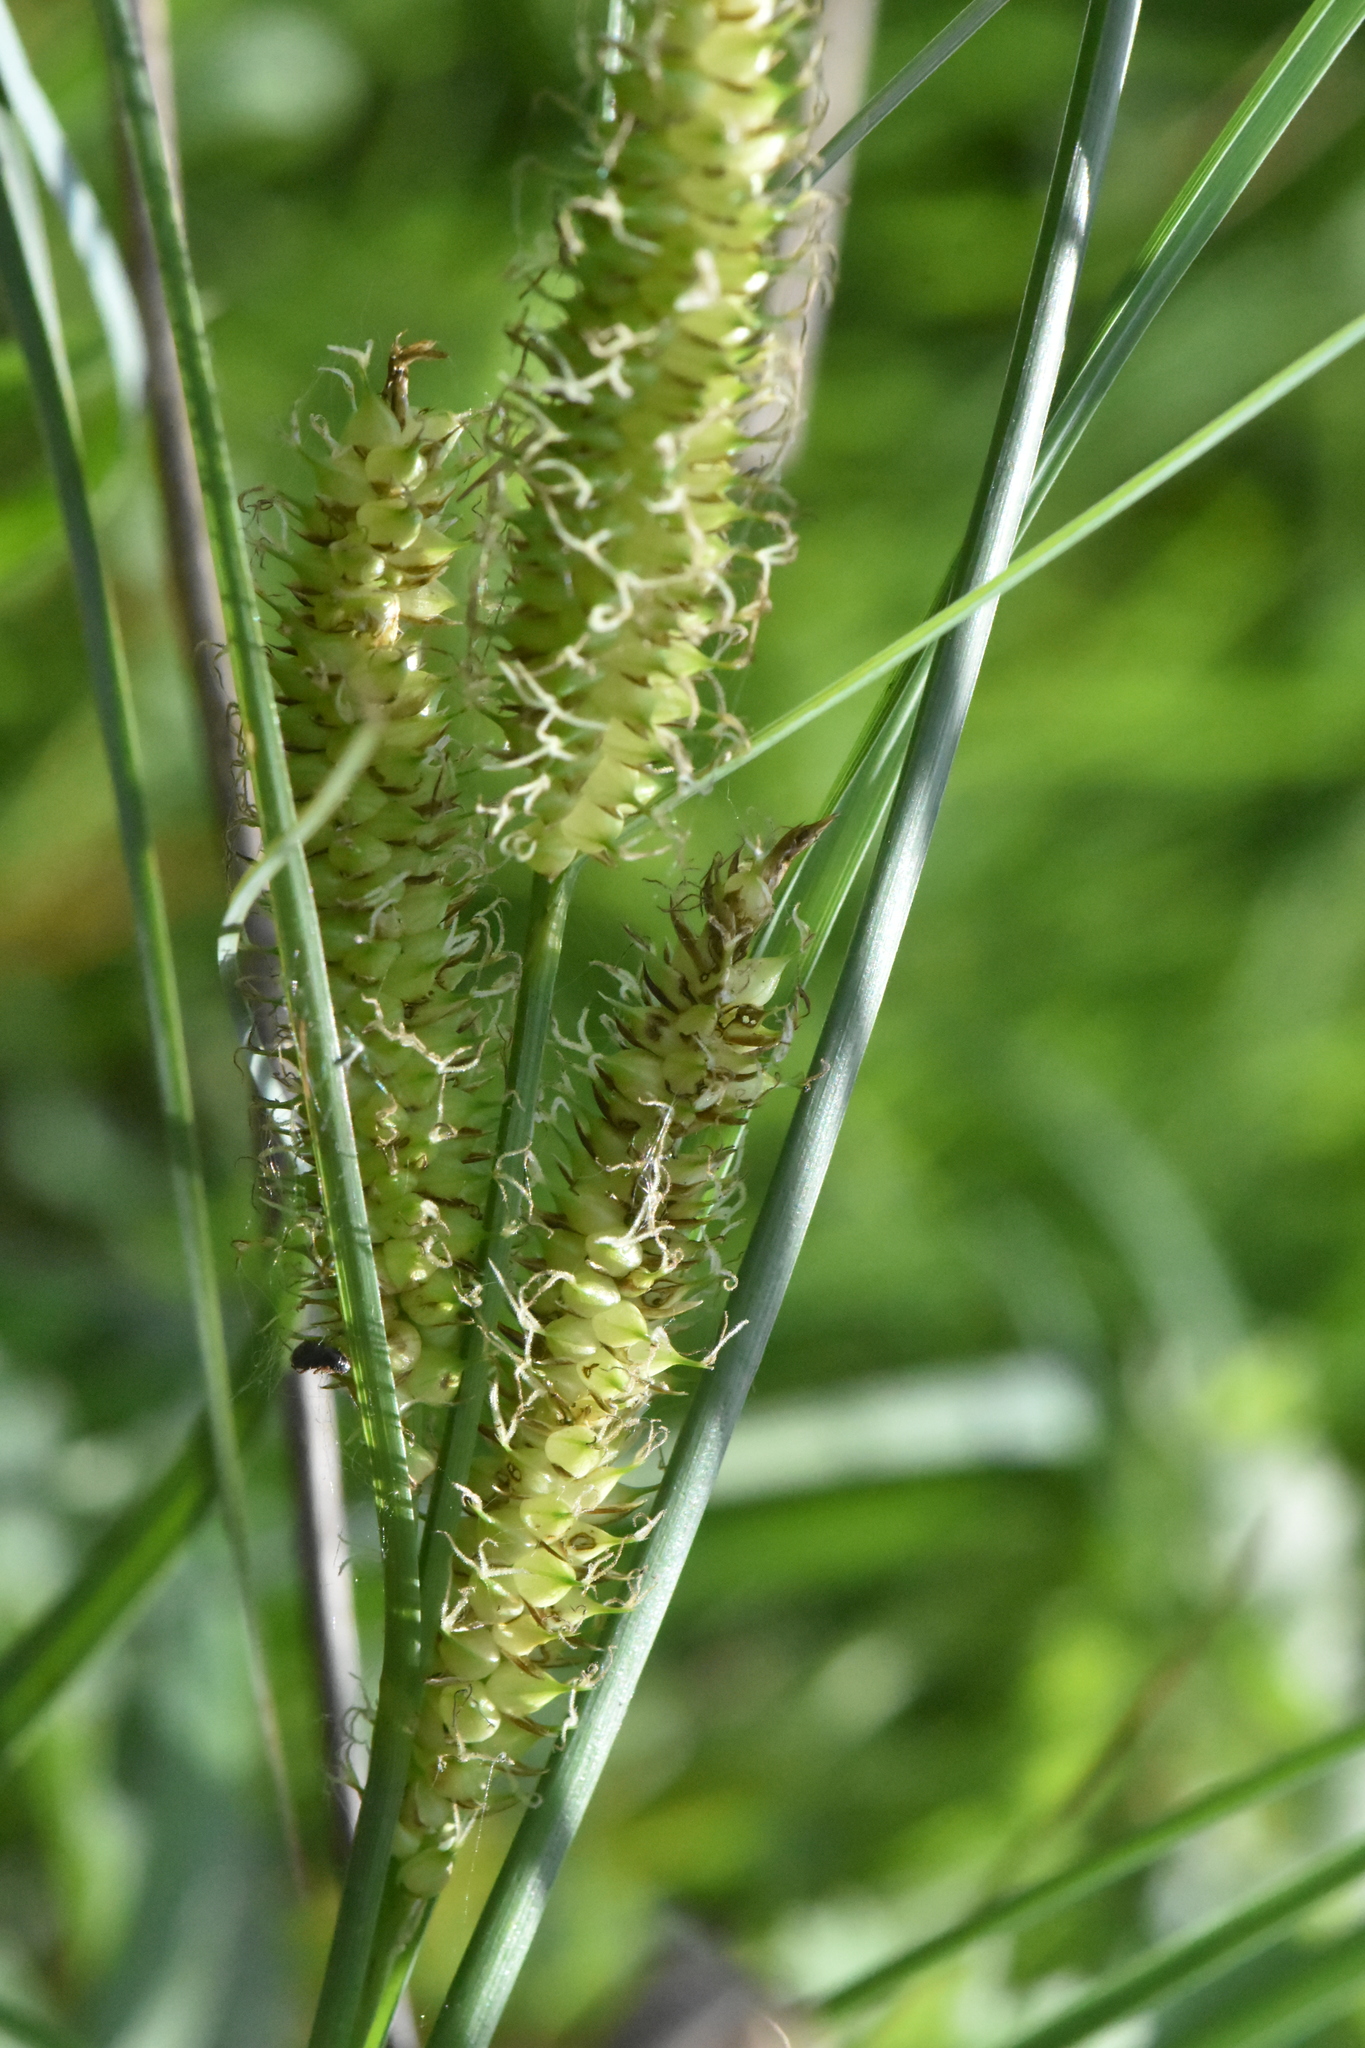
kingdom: Plantae
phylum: Tracheophyta
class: Liliopsida
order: Poales
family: Cyperaceae
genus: Carex
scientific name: Carex rostrata
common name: Bottle sedge
